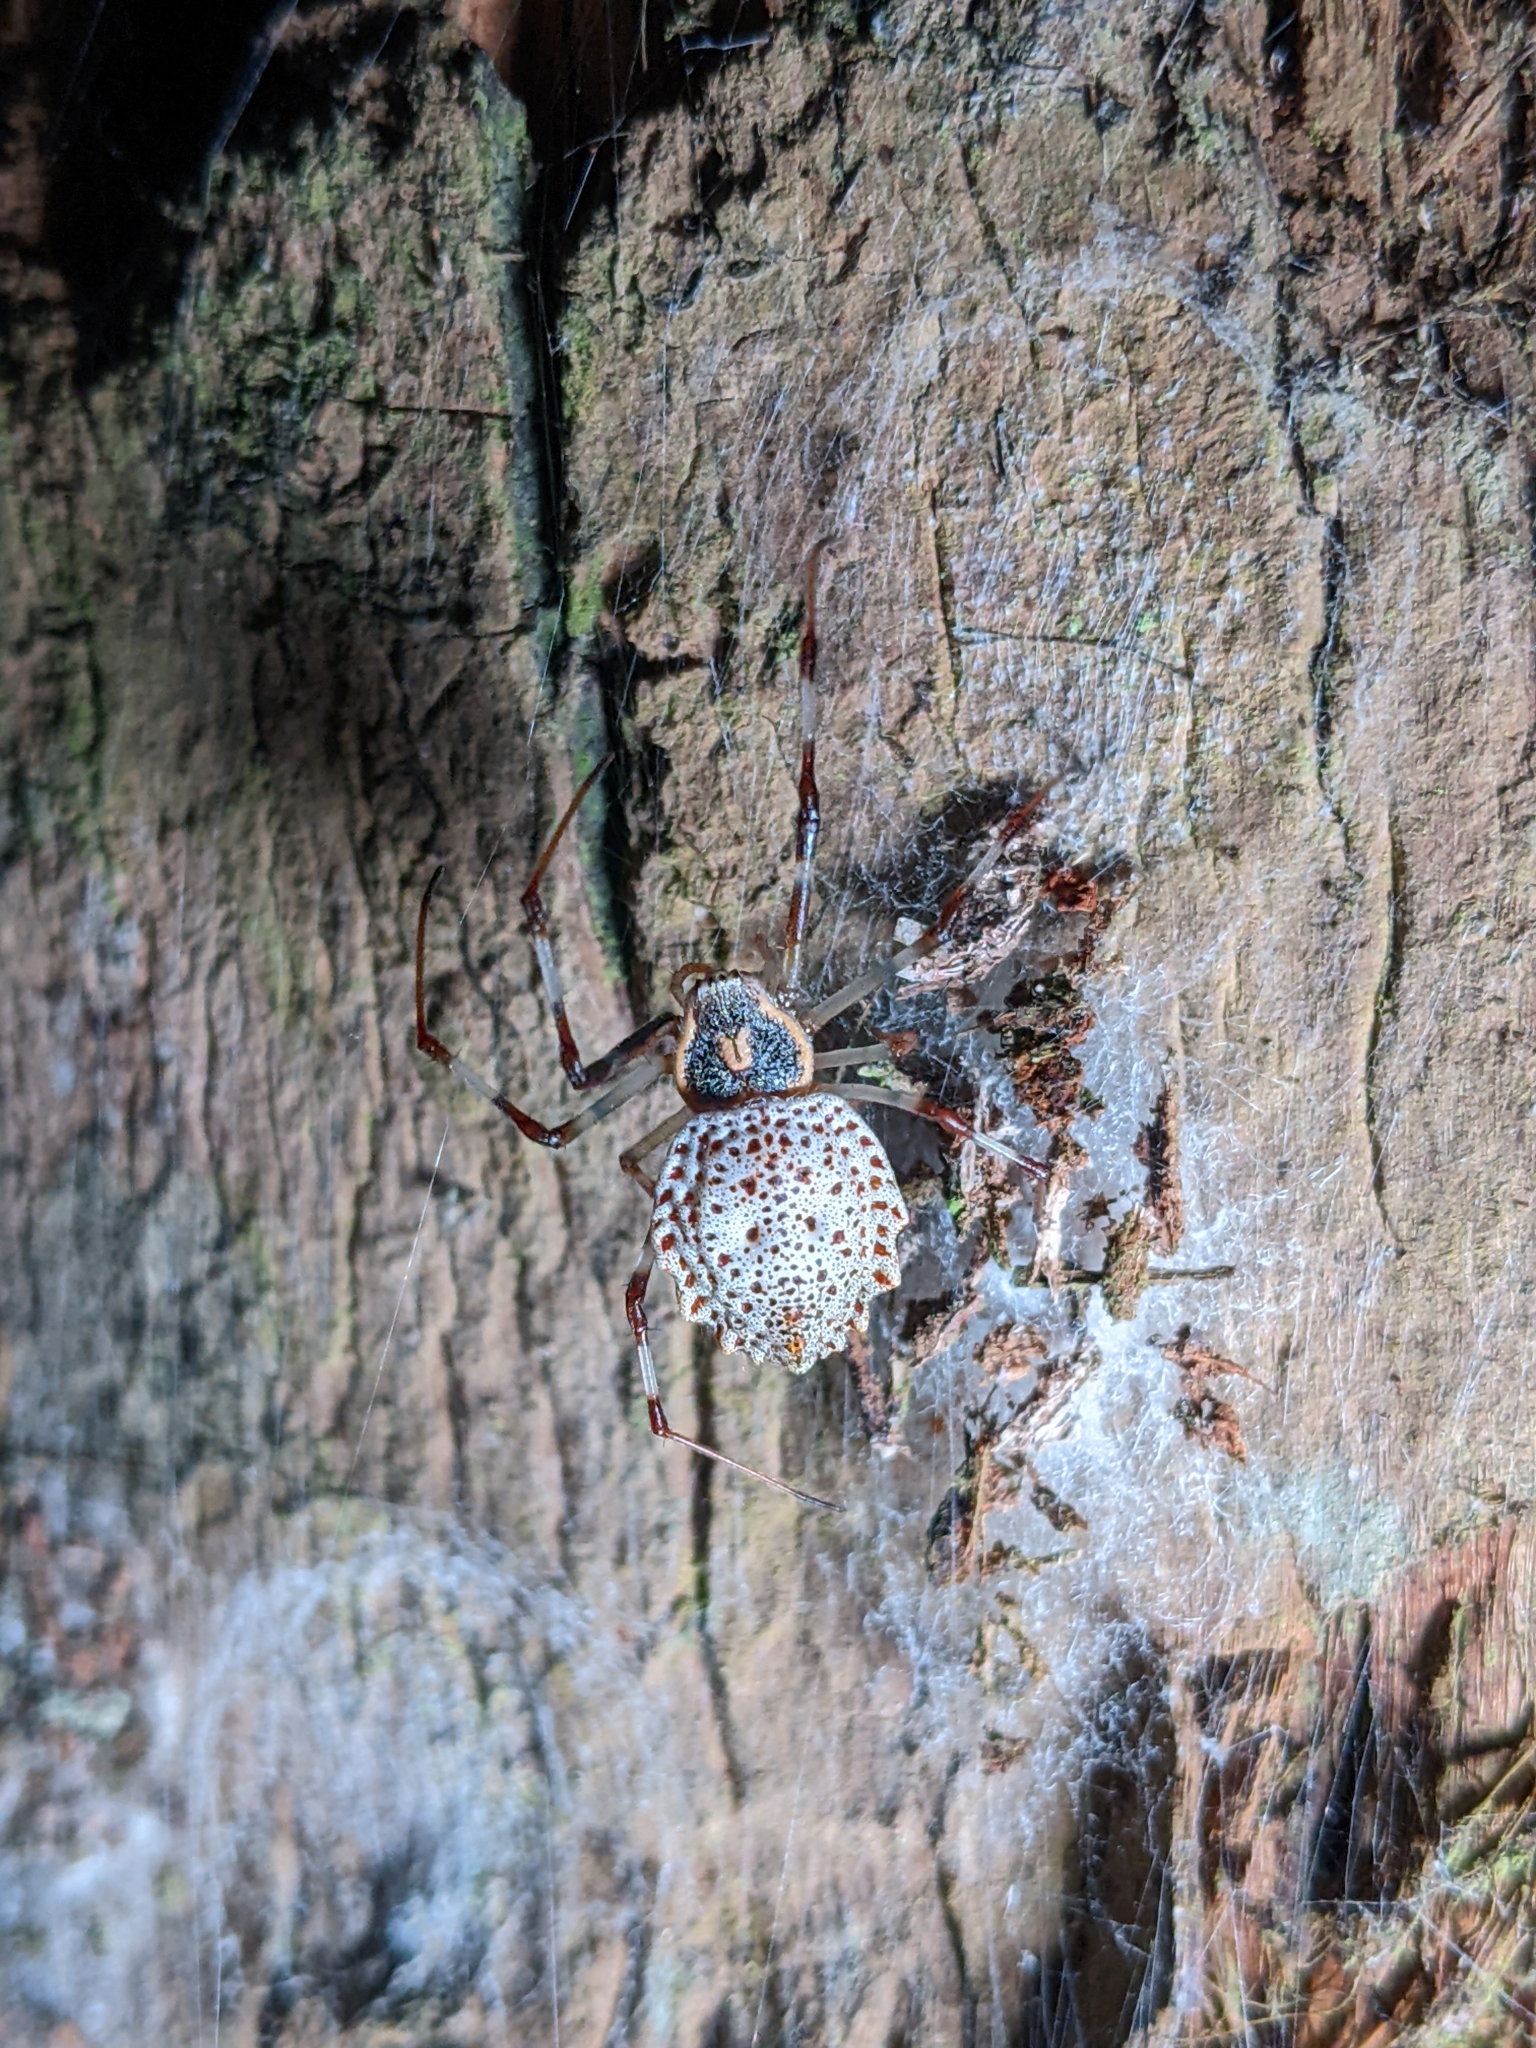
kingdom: Animalia
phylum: Arthropoda
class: Arachnida
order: Araneae
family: Araneidae
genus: Herennia
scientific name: Herennia multipuncta
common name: Spotted coin spider
